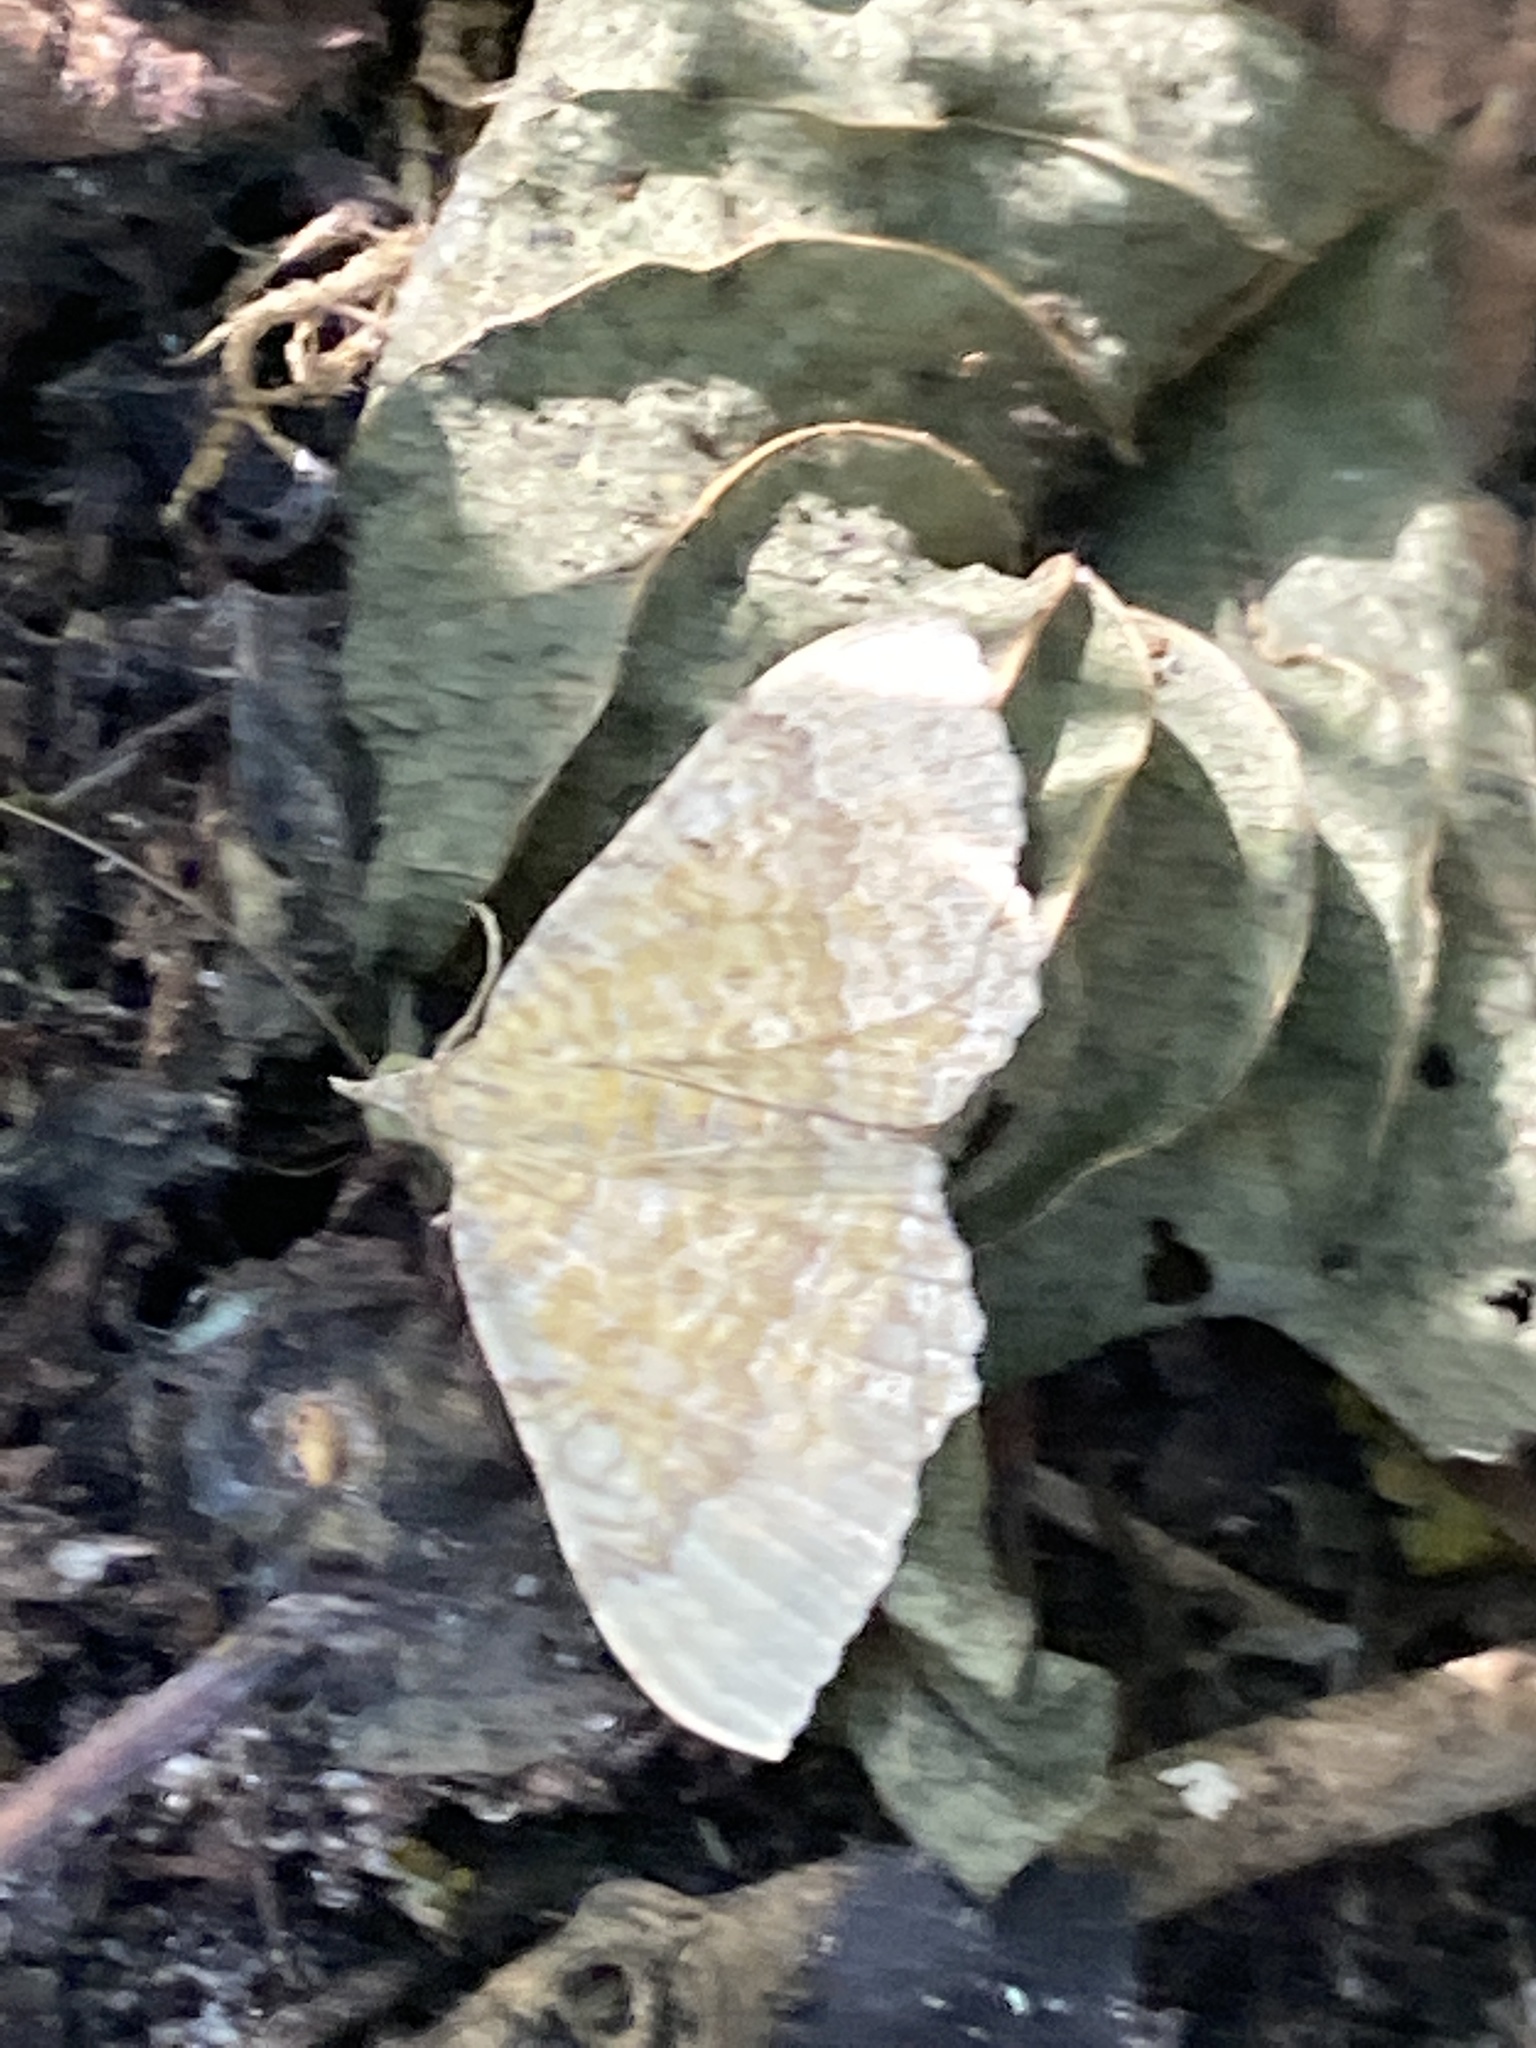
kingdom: Animalia
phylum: Arthropoda
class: Insecta
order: Lepidoptera
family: Geometridae
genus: Camptogramma
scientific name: Camptogramma bilineata
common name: Yellow shell
